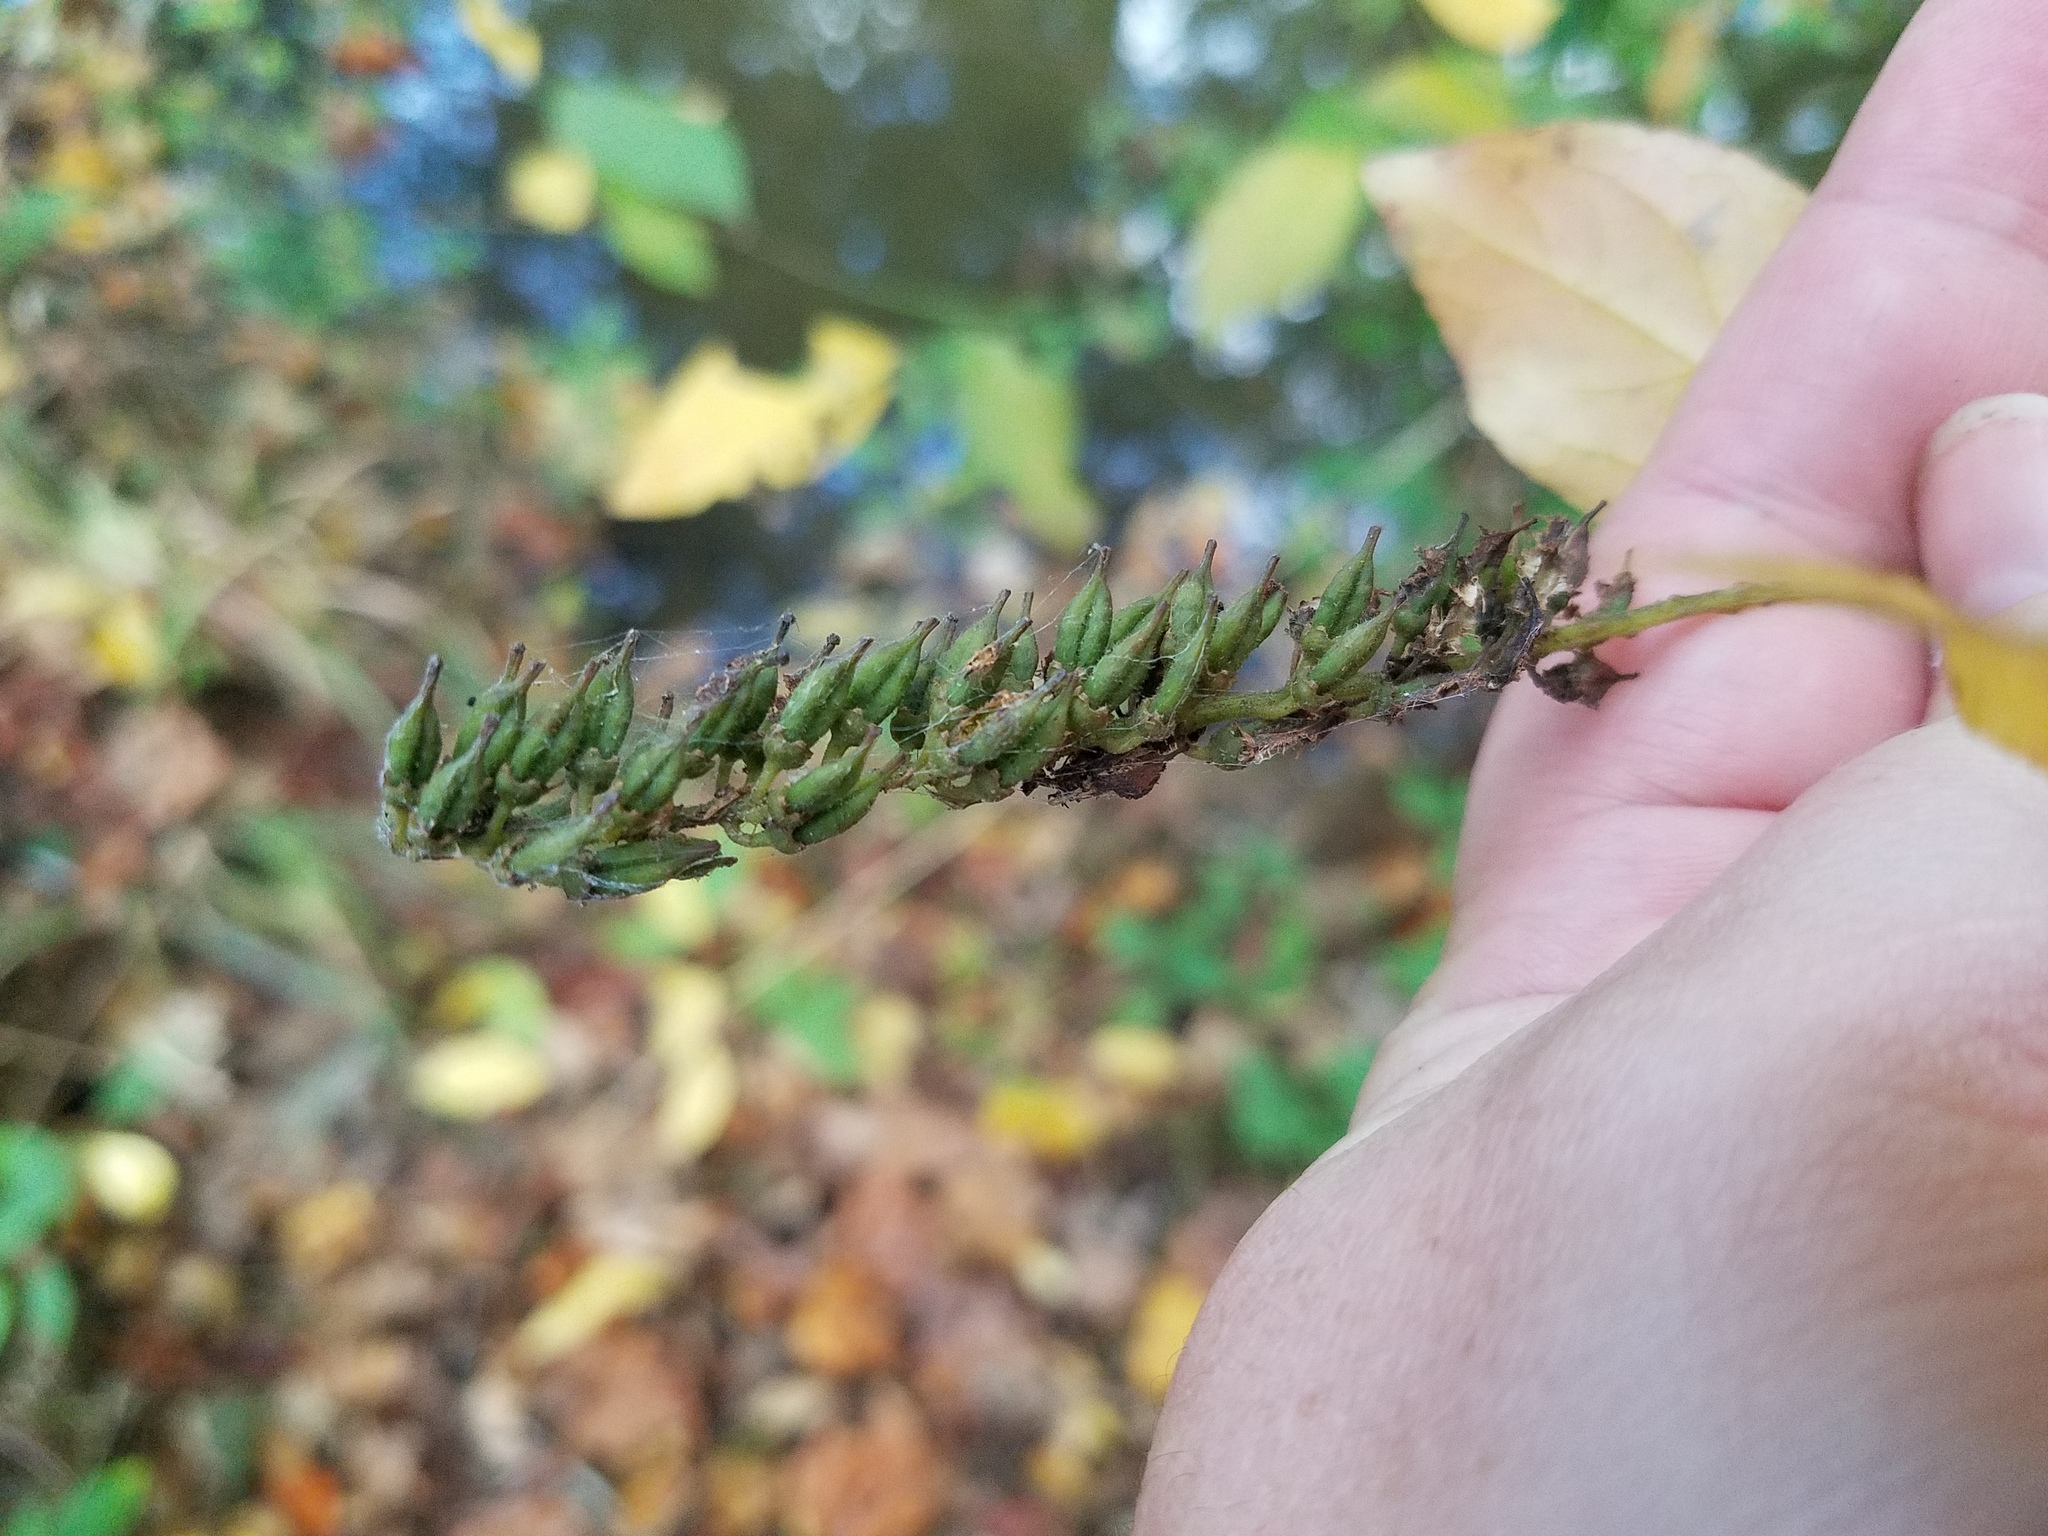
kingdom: Plantae
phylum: Tracheophyta
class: Magnoliopsida
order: Saxifragales
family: Iteaceae
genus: Itea
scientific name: Itea virginica
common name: Sweetspire
